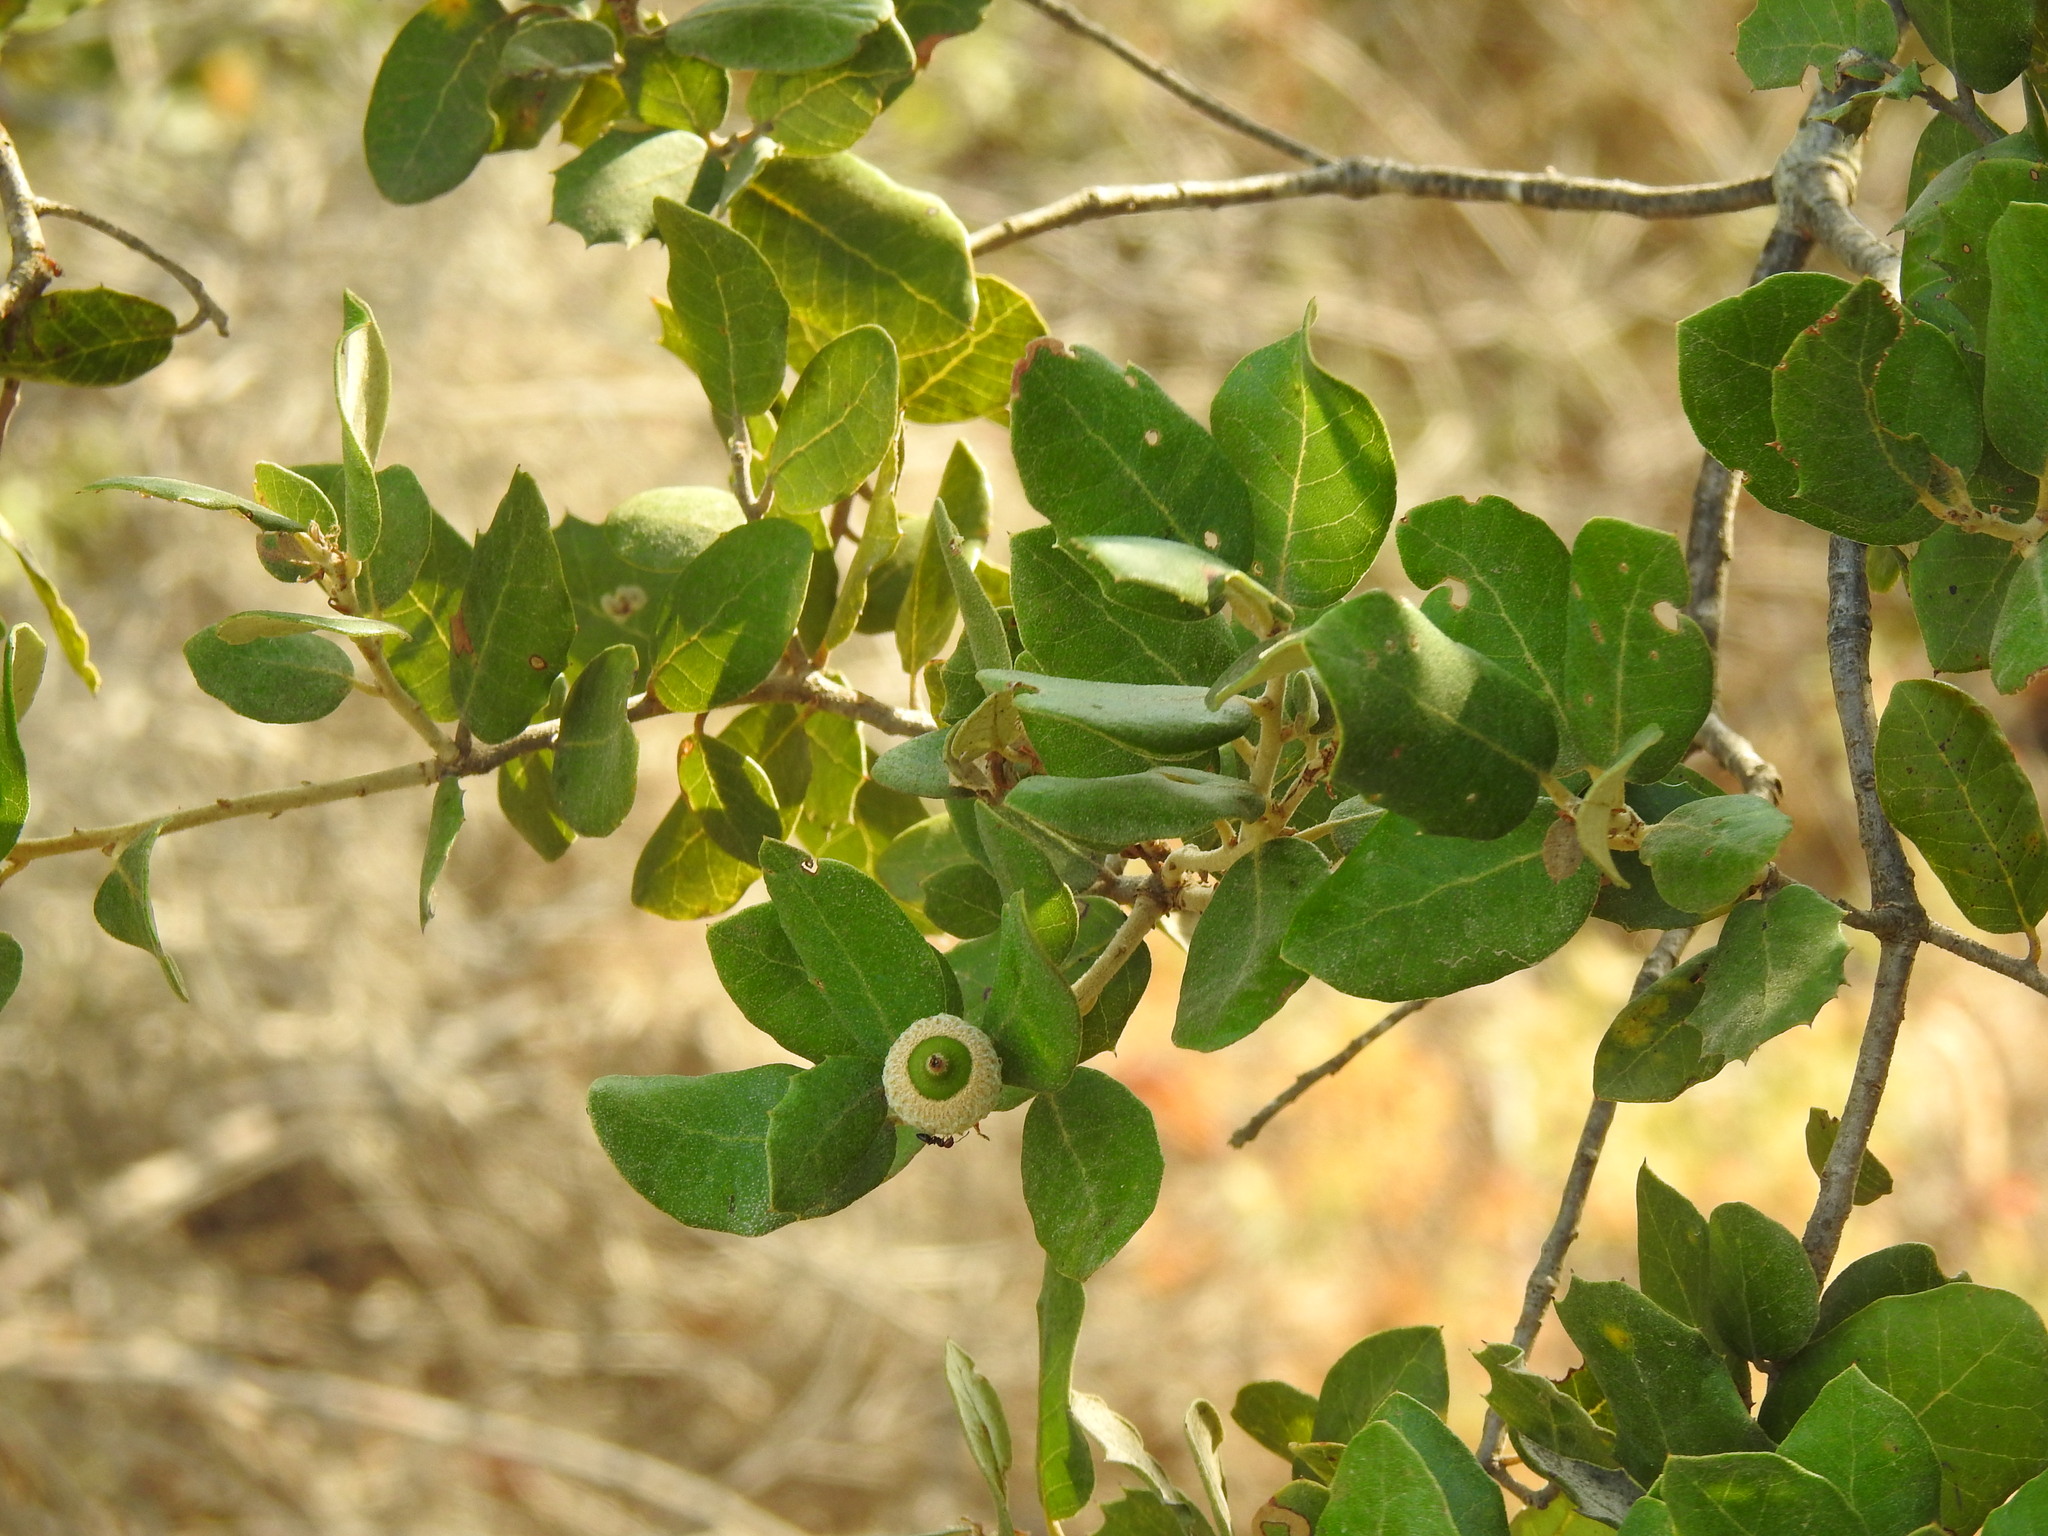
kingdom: Plantae
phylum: Tracheophyta
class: Magnoliopsida
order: Fagales
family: Fagaceae
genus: Quercus
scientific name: Quercus rotundifolia
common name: Holm oak
